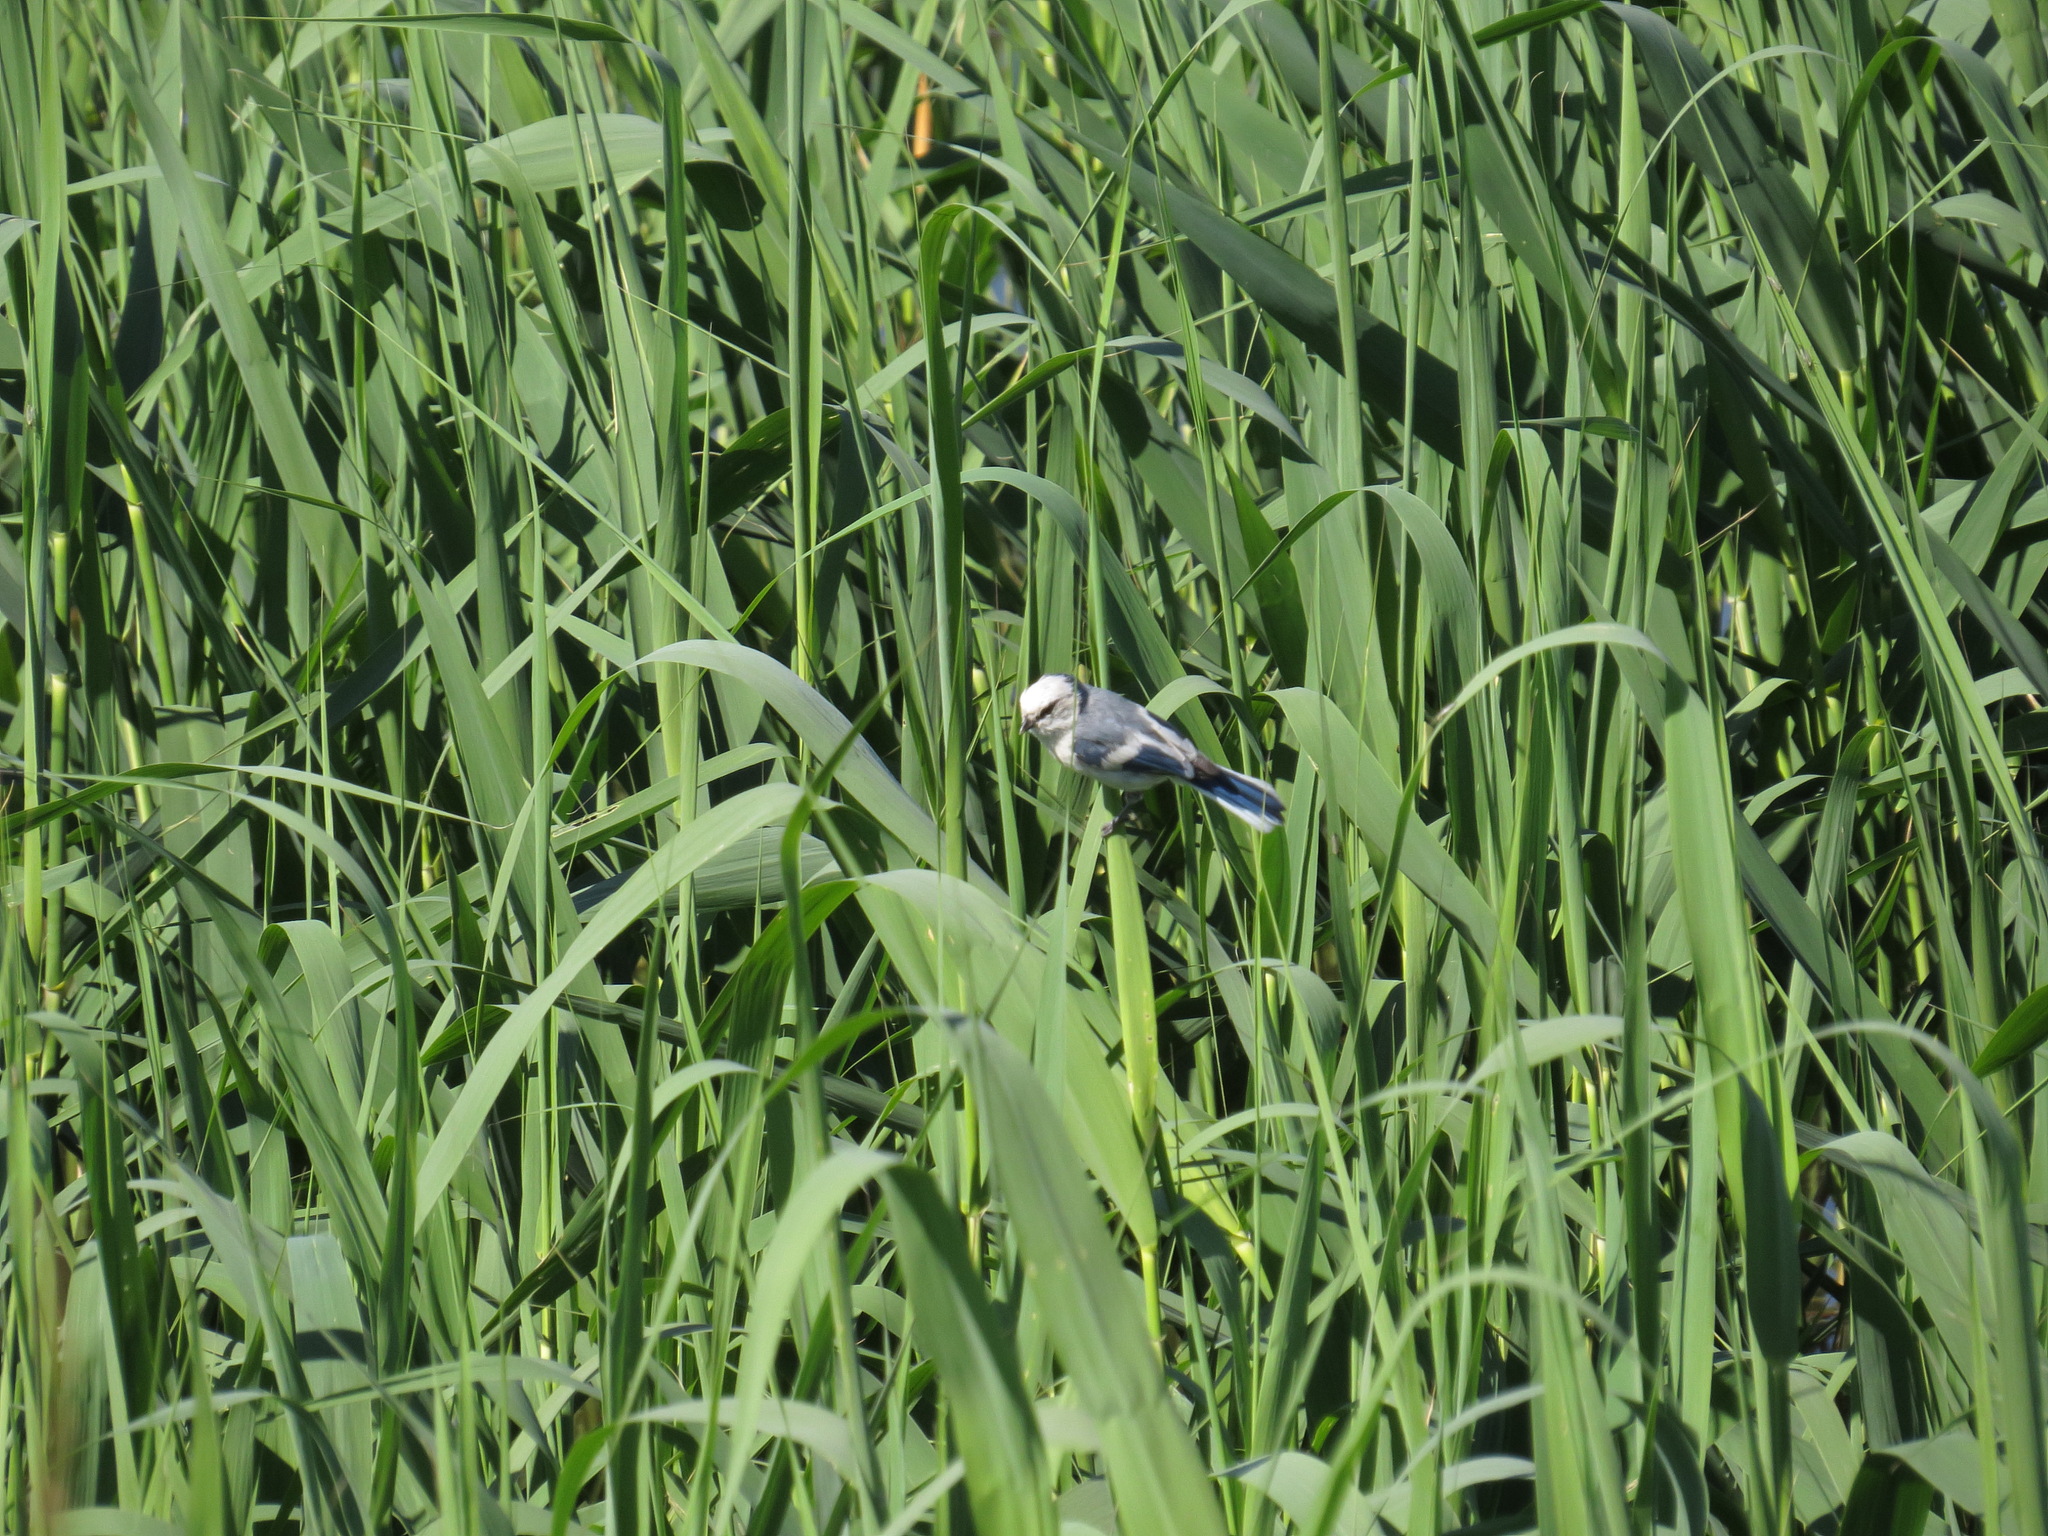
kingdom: Animalia
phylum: Chordata
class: Aves
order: Passeriformes
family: Paridae
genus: Cyanistes
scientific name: Cyanistes cyanus
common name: Azure tit
